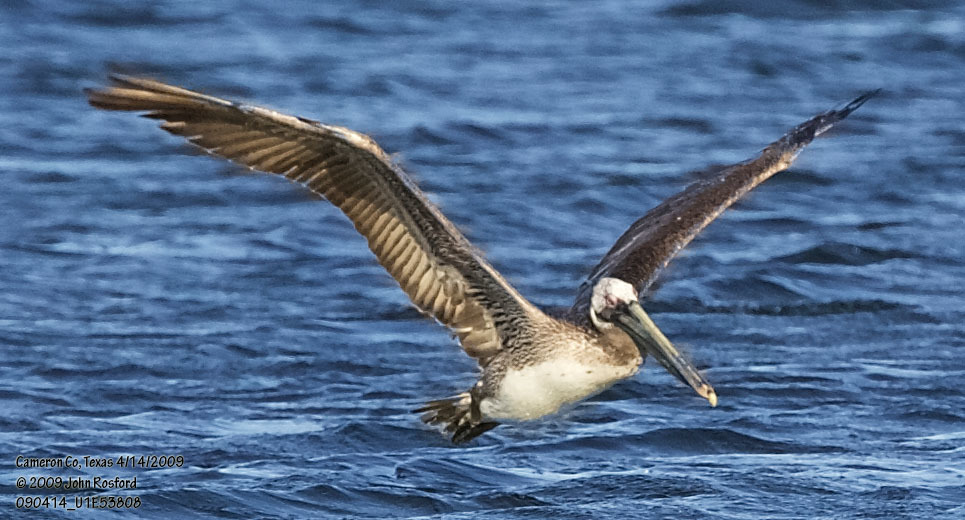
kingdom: Animalia
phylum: Chordata
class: Aves
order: Pelecaniformes
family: Pelecanidae
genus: Pelecanus
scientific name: Pelecanus occidentalis
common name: Brown pelican
